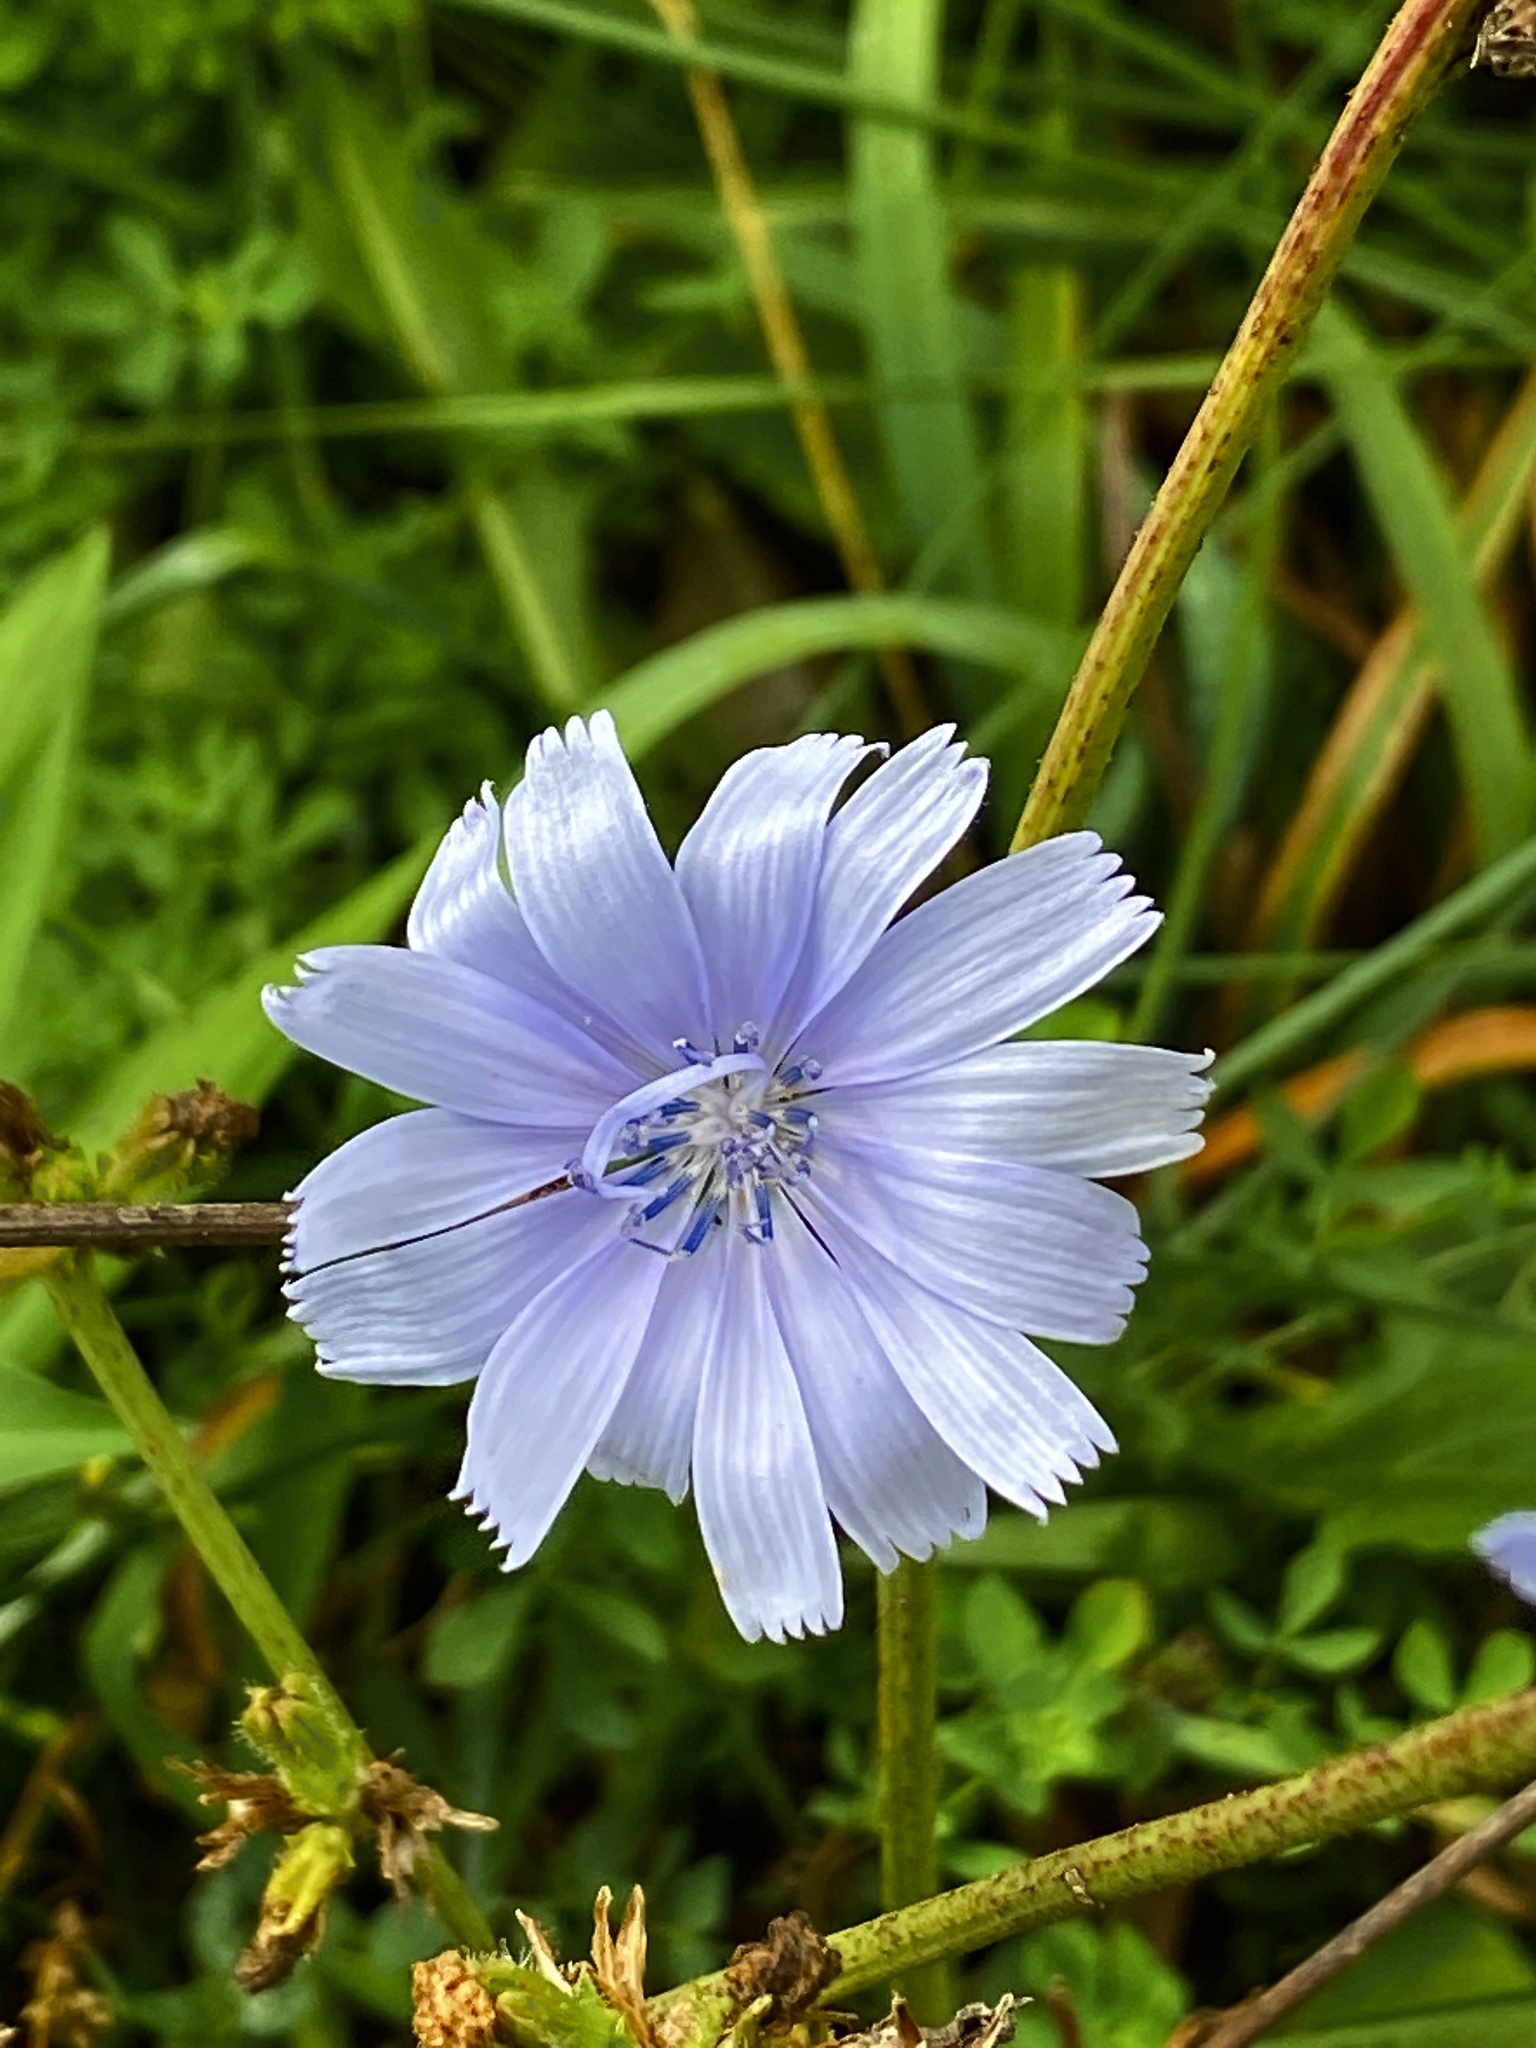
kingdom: Plantae
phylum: Tracheophyta
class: Magnoliopsida
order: Asterales
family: Asteraceae
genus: Cichorium
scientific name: Cichorium intybus
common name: Chicory
